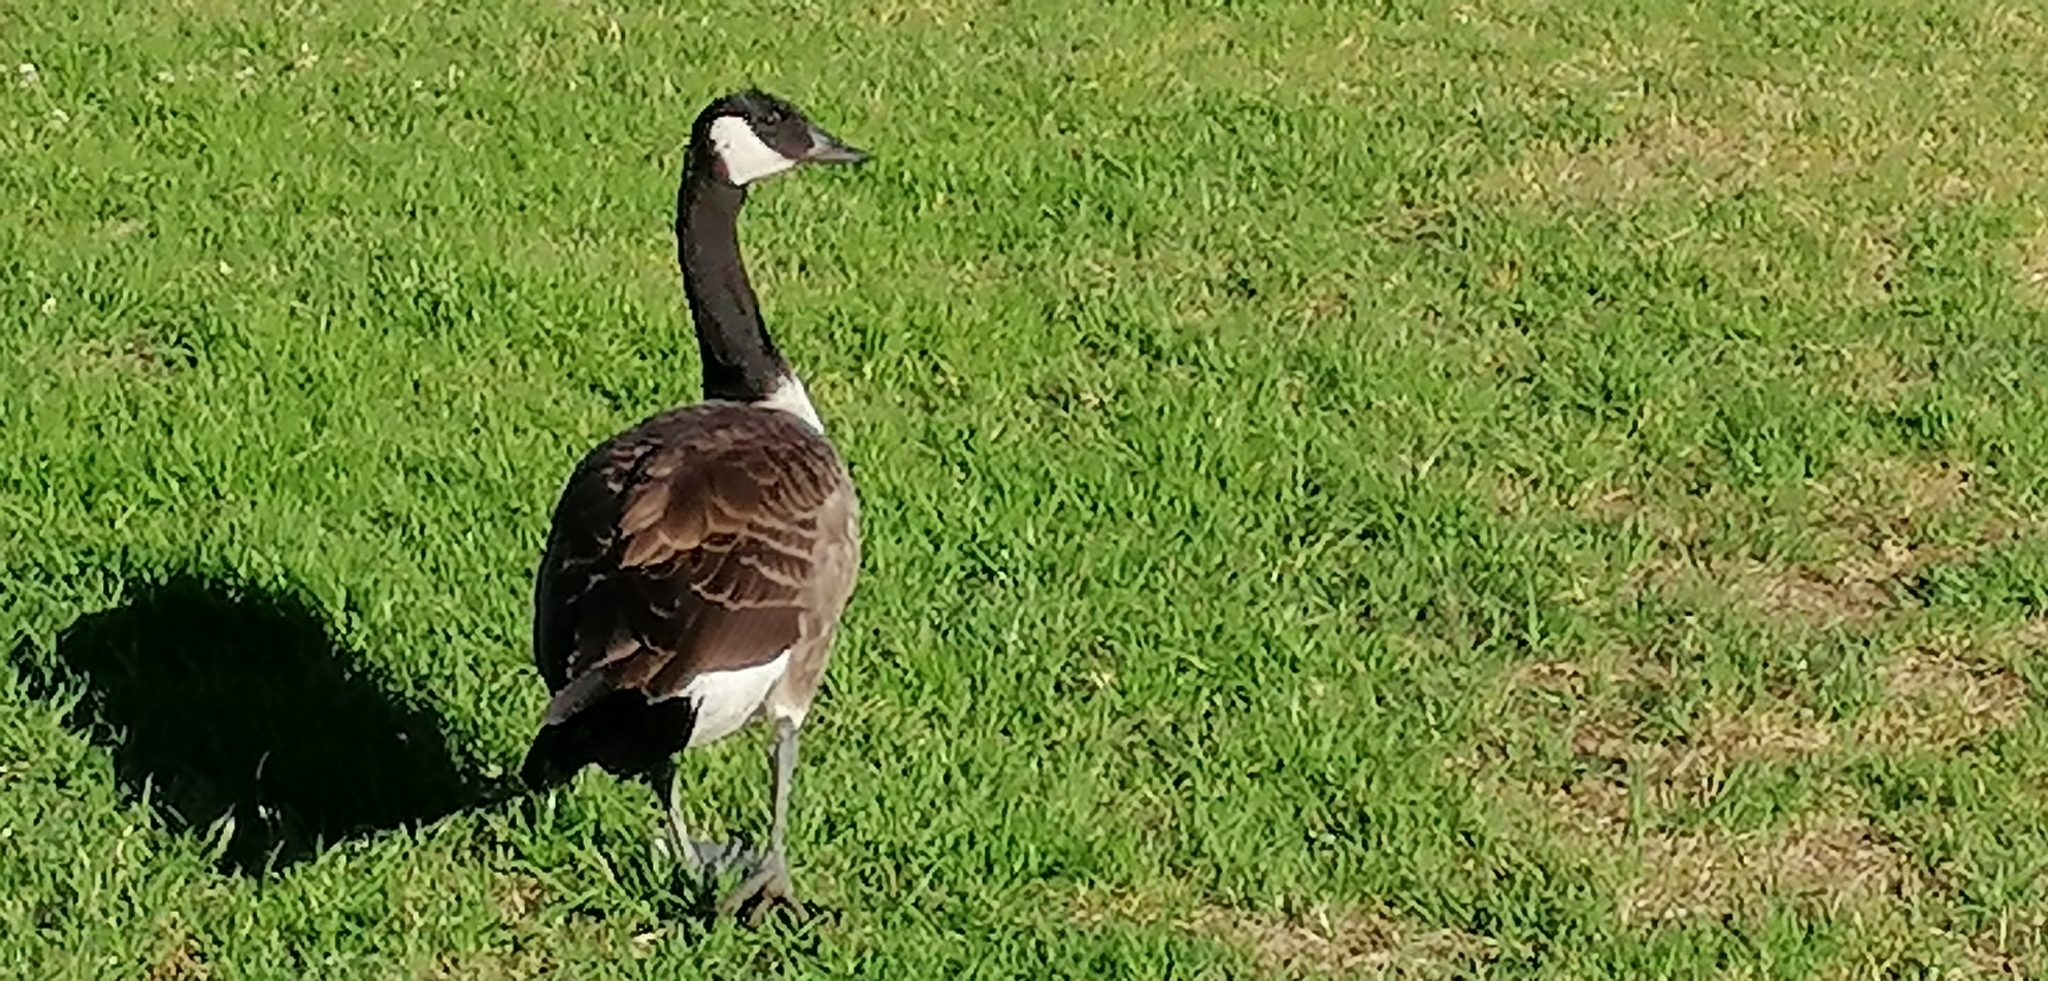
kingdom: Animalia
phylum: Chordata
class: Aves
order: Anseriformes
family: Anatidae
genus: Branta
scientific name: Branta canadensis
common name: Canada goose
